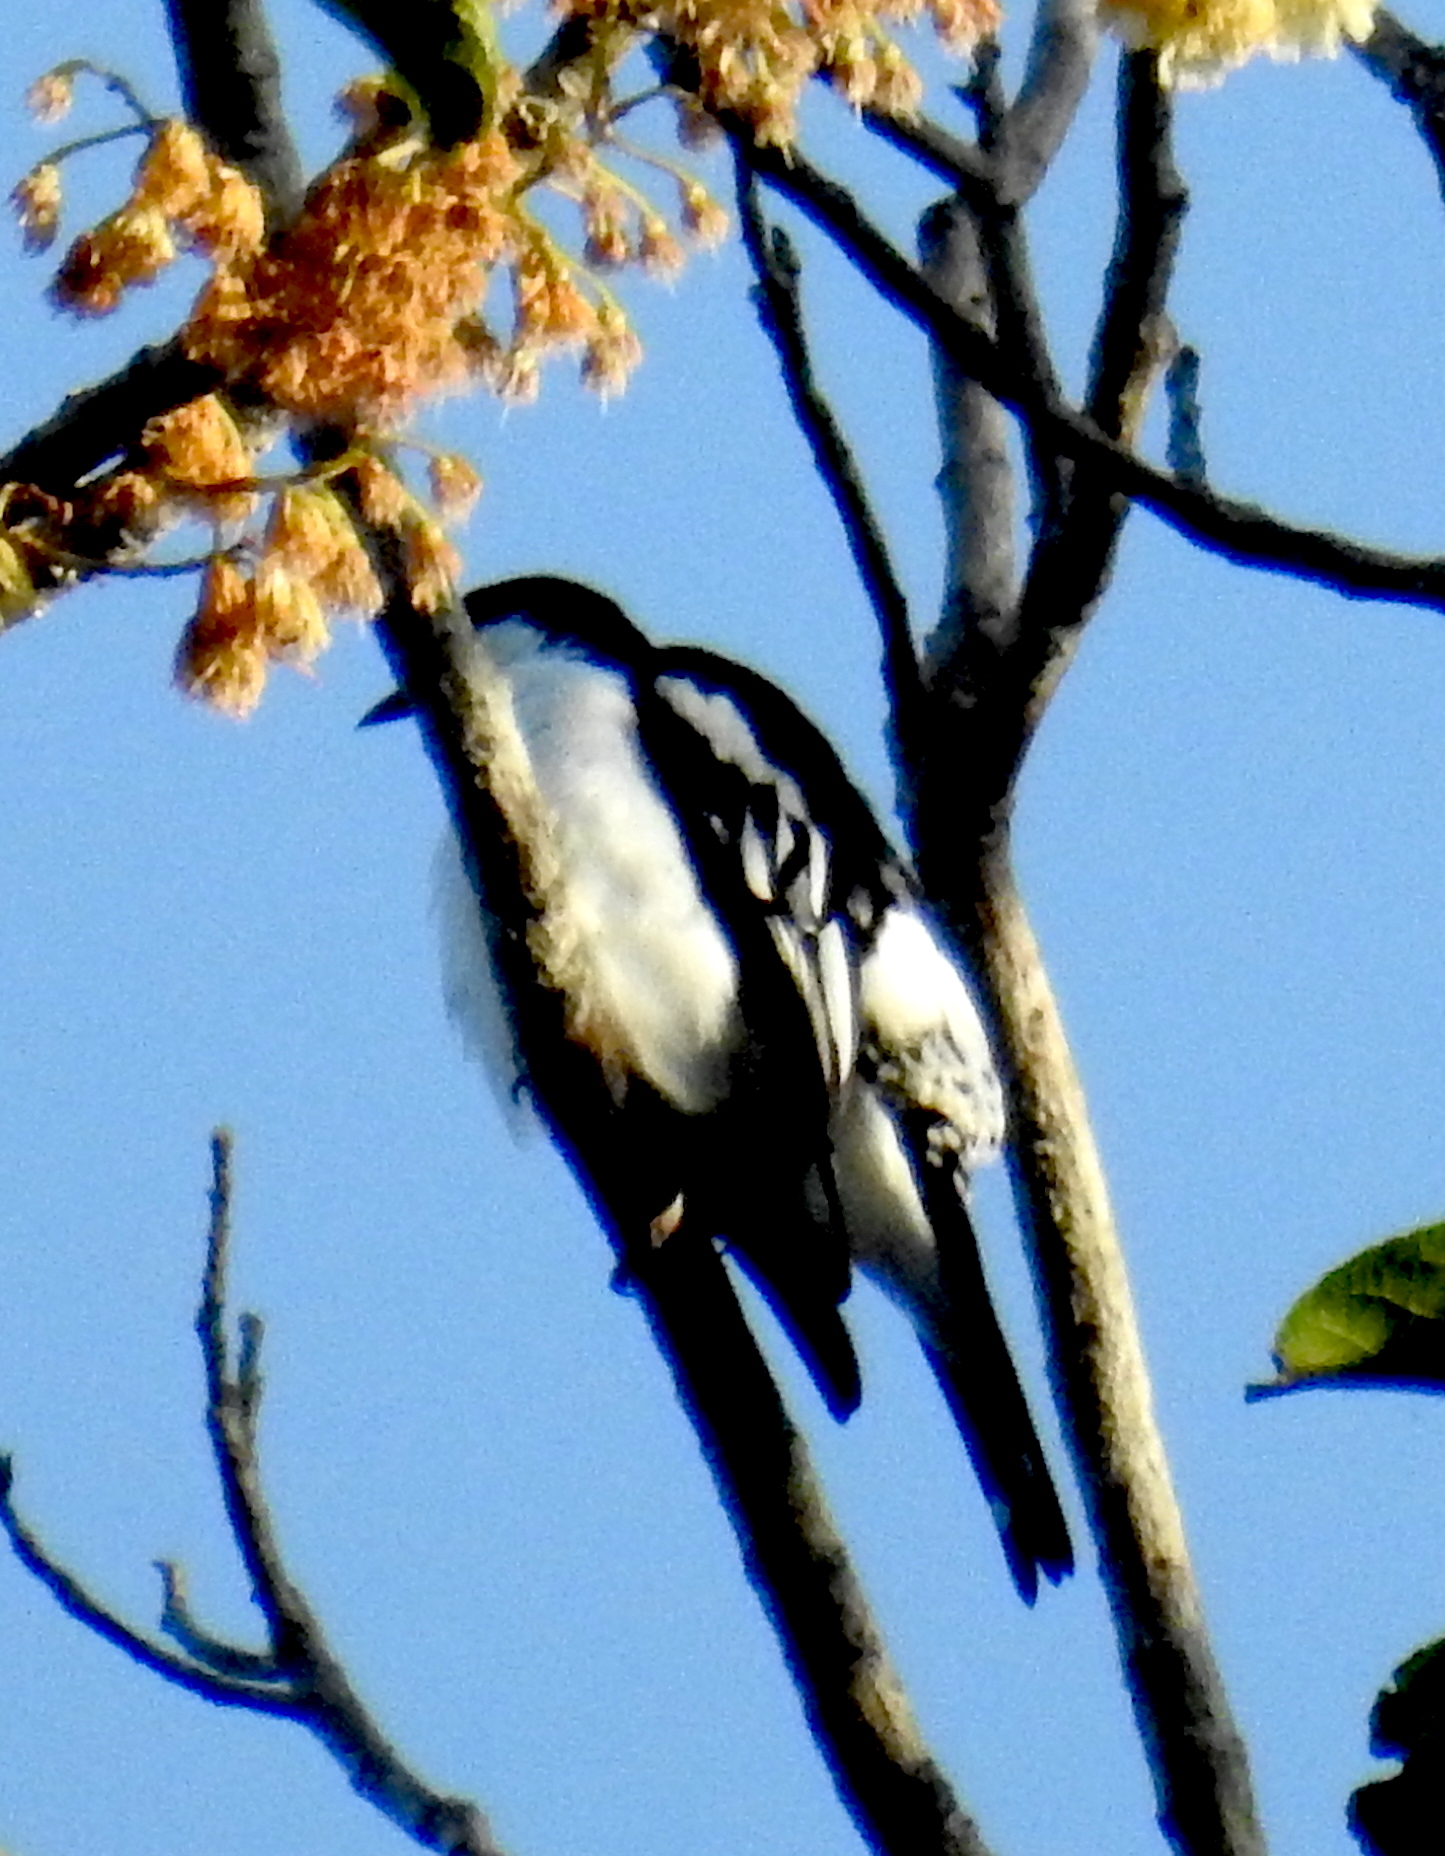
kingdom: Animalia
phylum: Chordata
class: Aves
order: Passeriformes
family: Campephagidae
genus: Lalage
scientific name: Lalage atrovirens
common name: Black-browed triller
